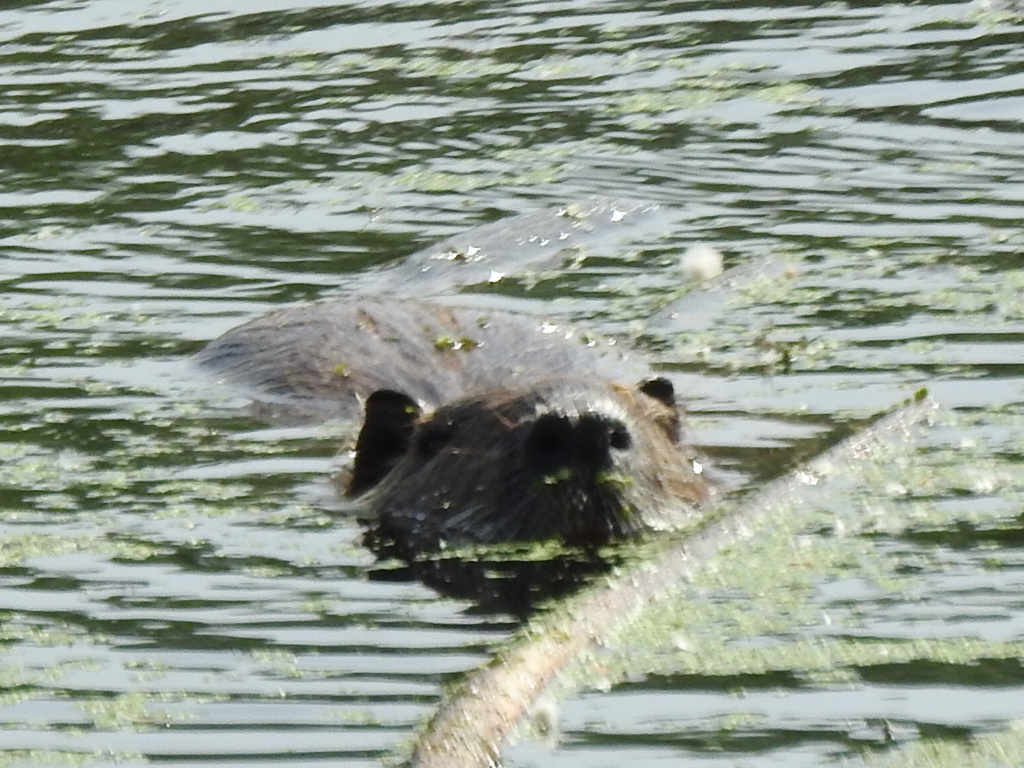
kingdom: Animalia
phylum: Chordata
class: Mammalia
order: Rodentia
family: Myocastoridae
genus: Myocastor
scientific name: Myocastor coypus
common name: Coypu
